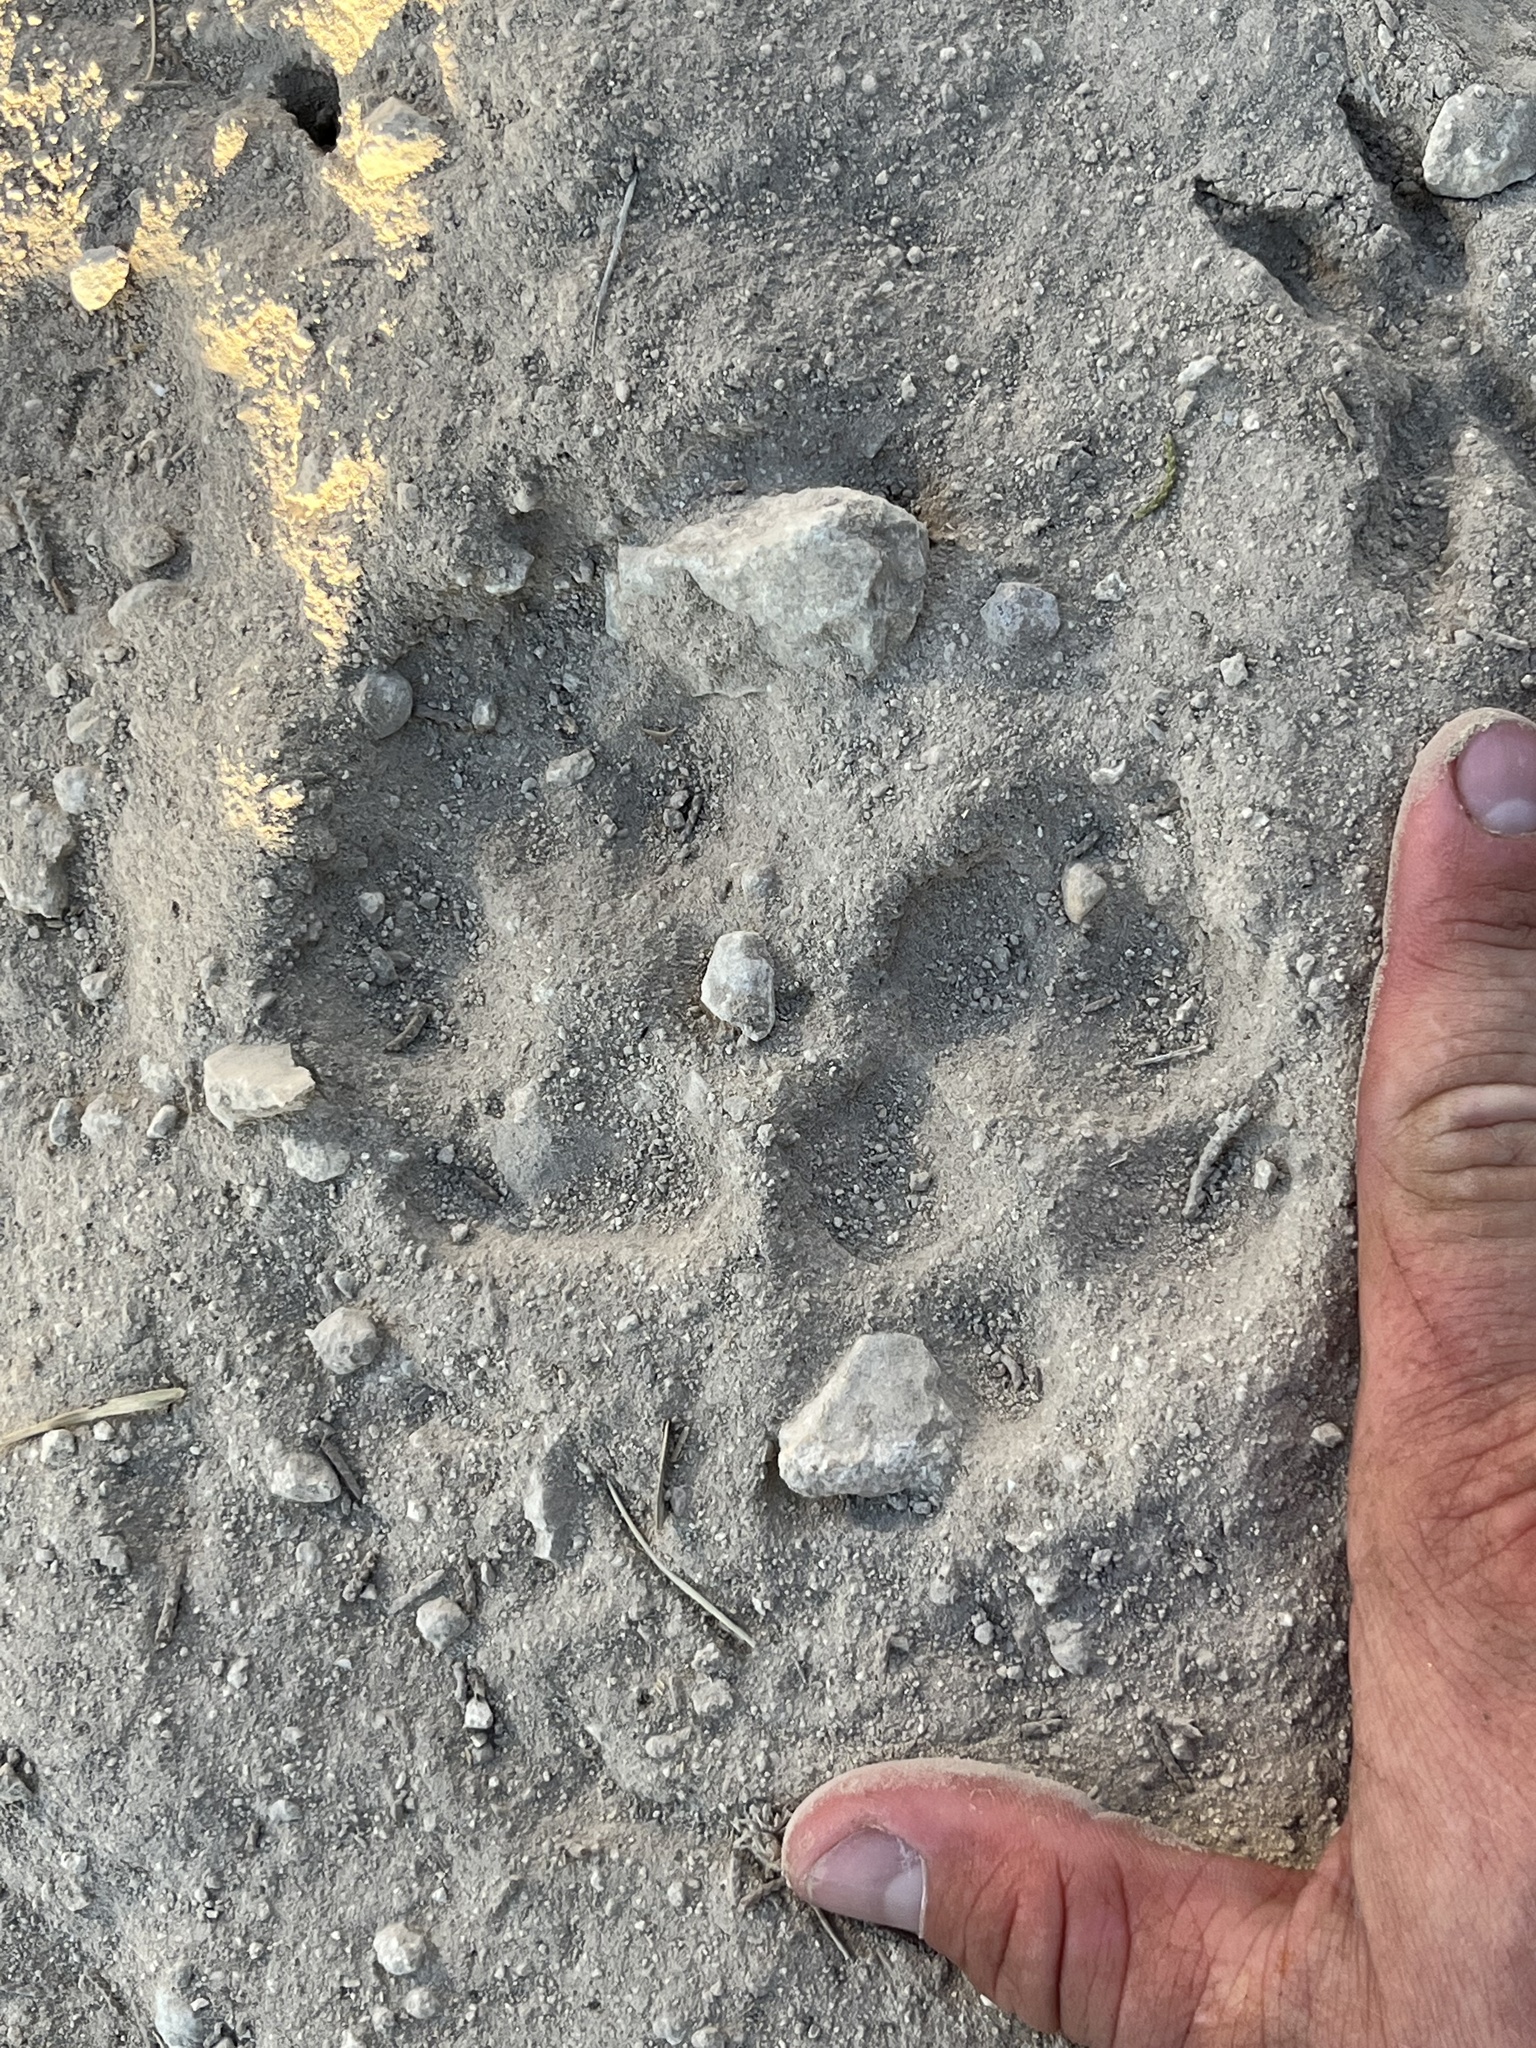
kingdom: Animalia
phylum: Chordata
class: Mammalia
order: Carnivora
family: Canidae
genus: Canis
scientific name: Canis latrans
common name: Coyote
